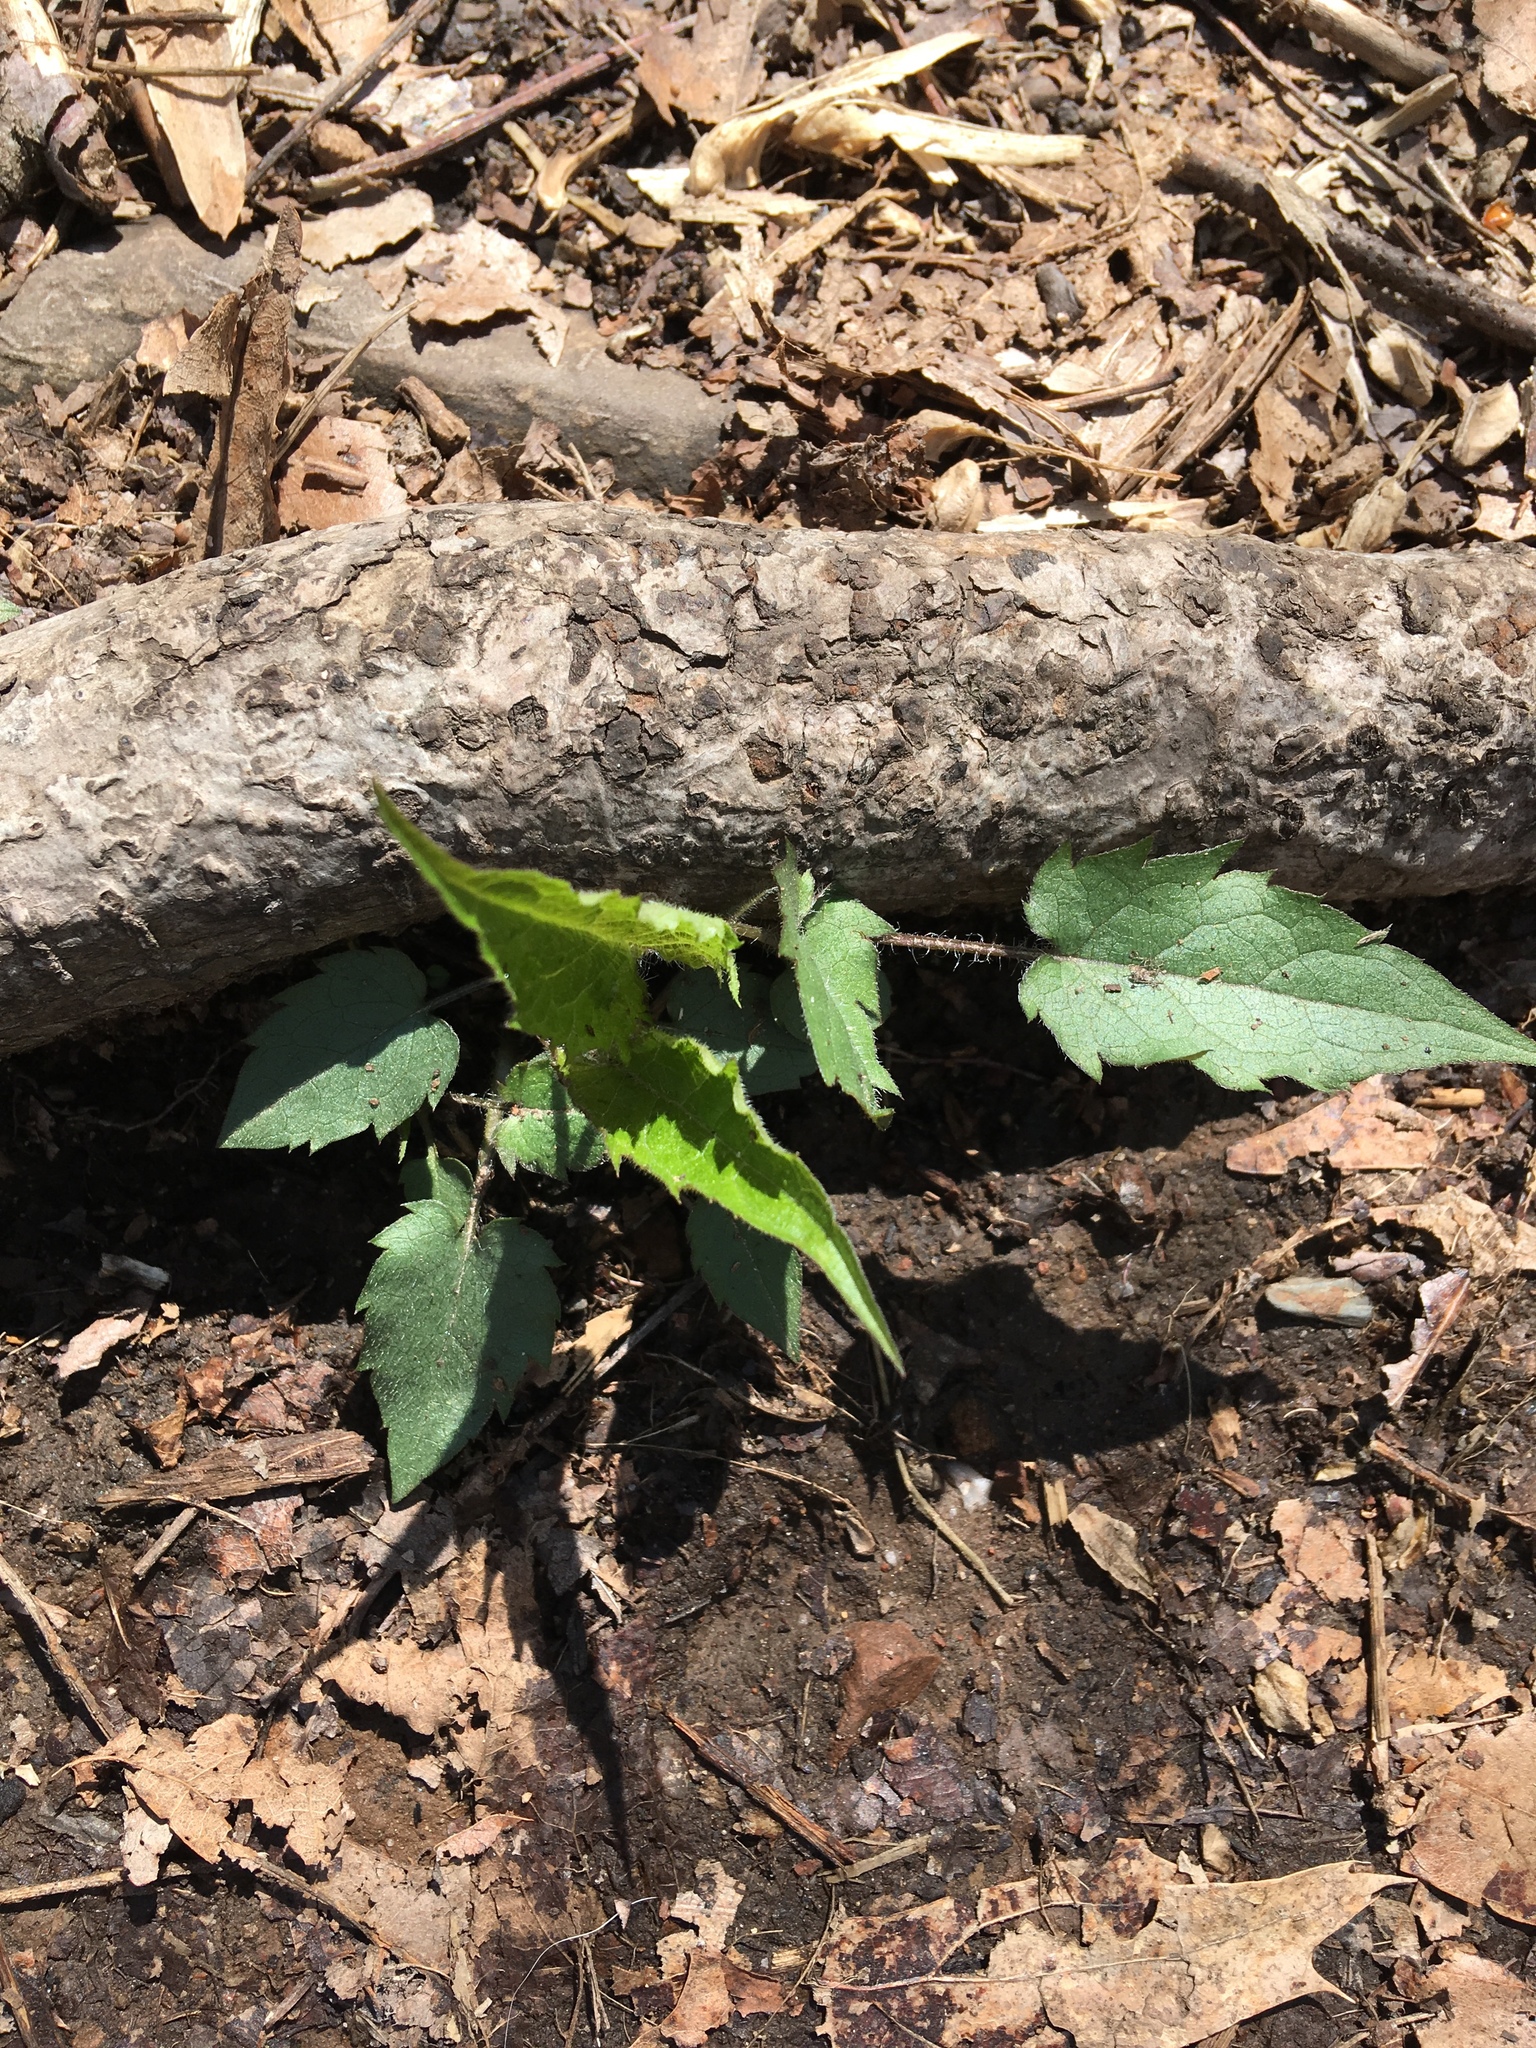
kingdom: Plantae
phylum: Tracheophyta
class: Magnoliopsida
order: Asterales
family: Asteraceae
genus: Eurybia
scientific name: Eurybia divaricata
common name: White wood aster
